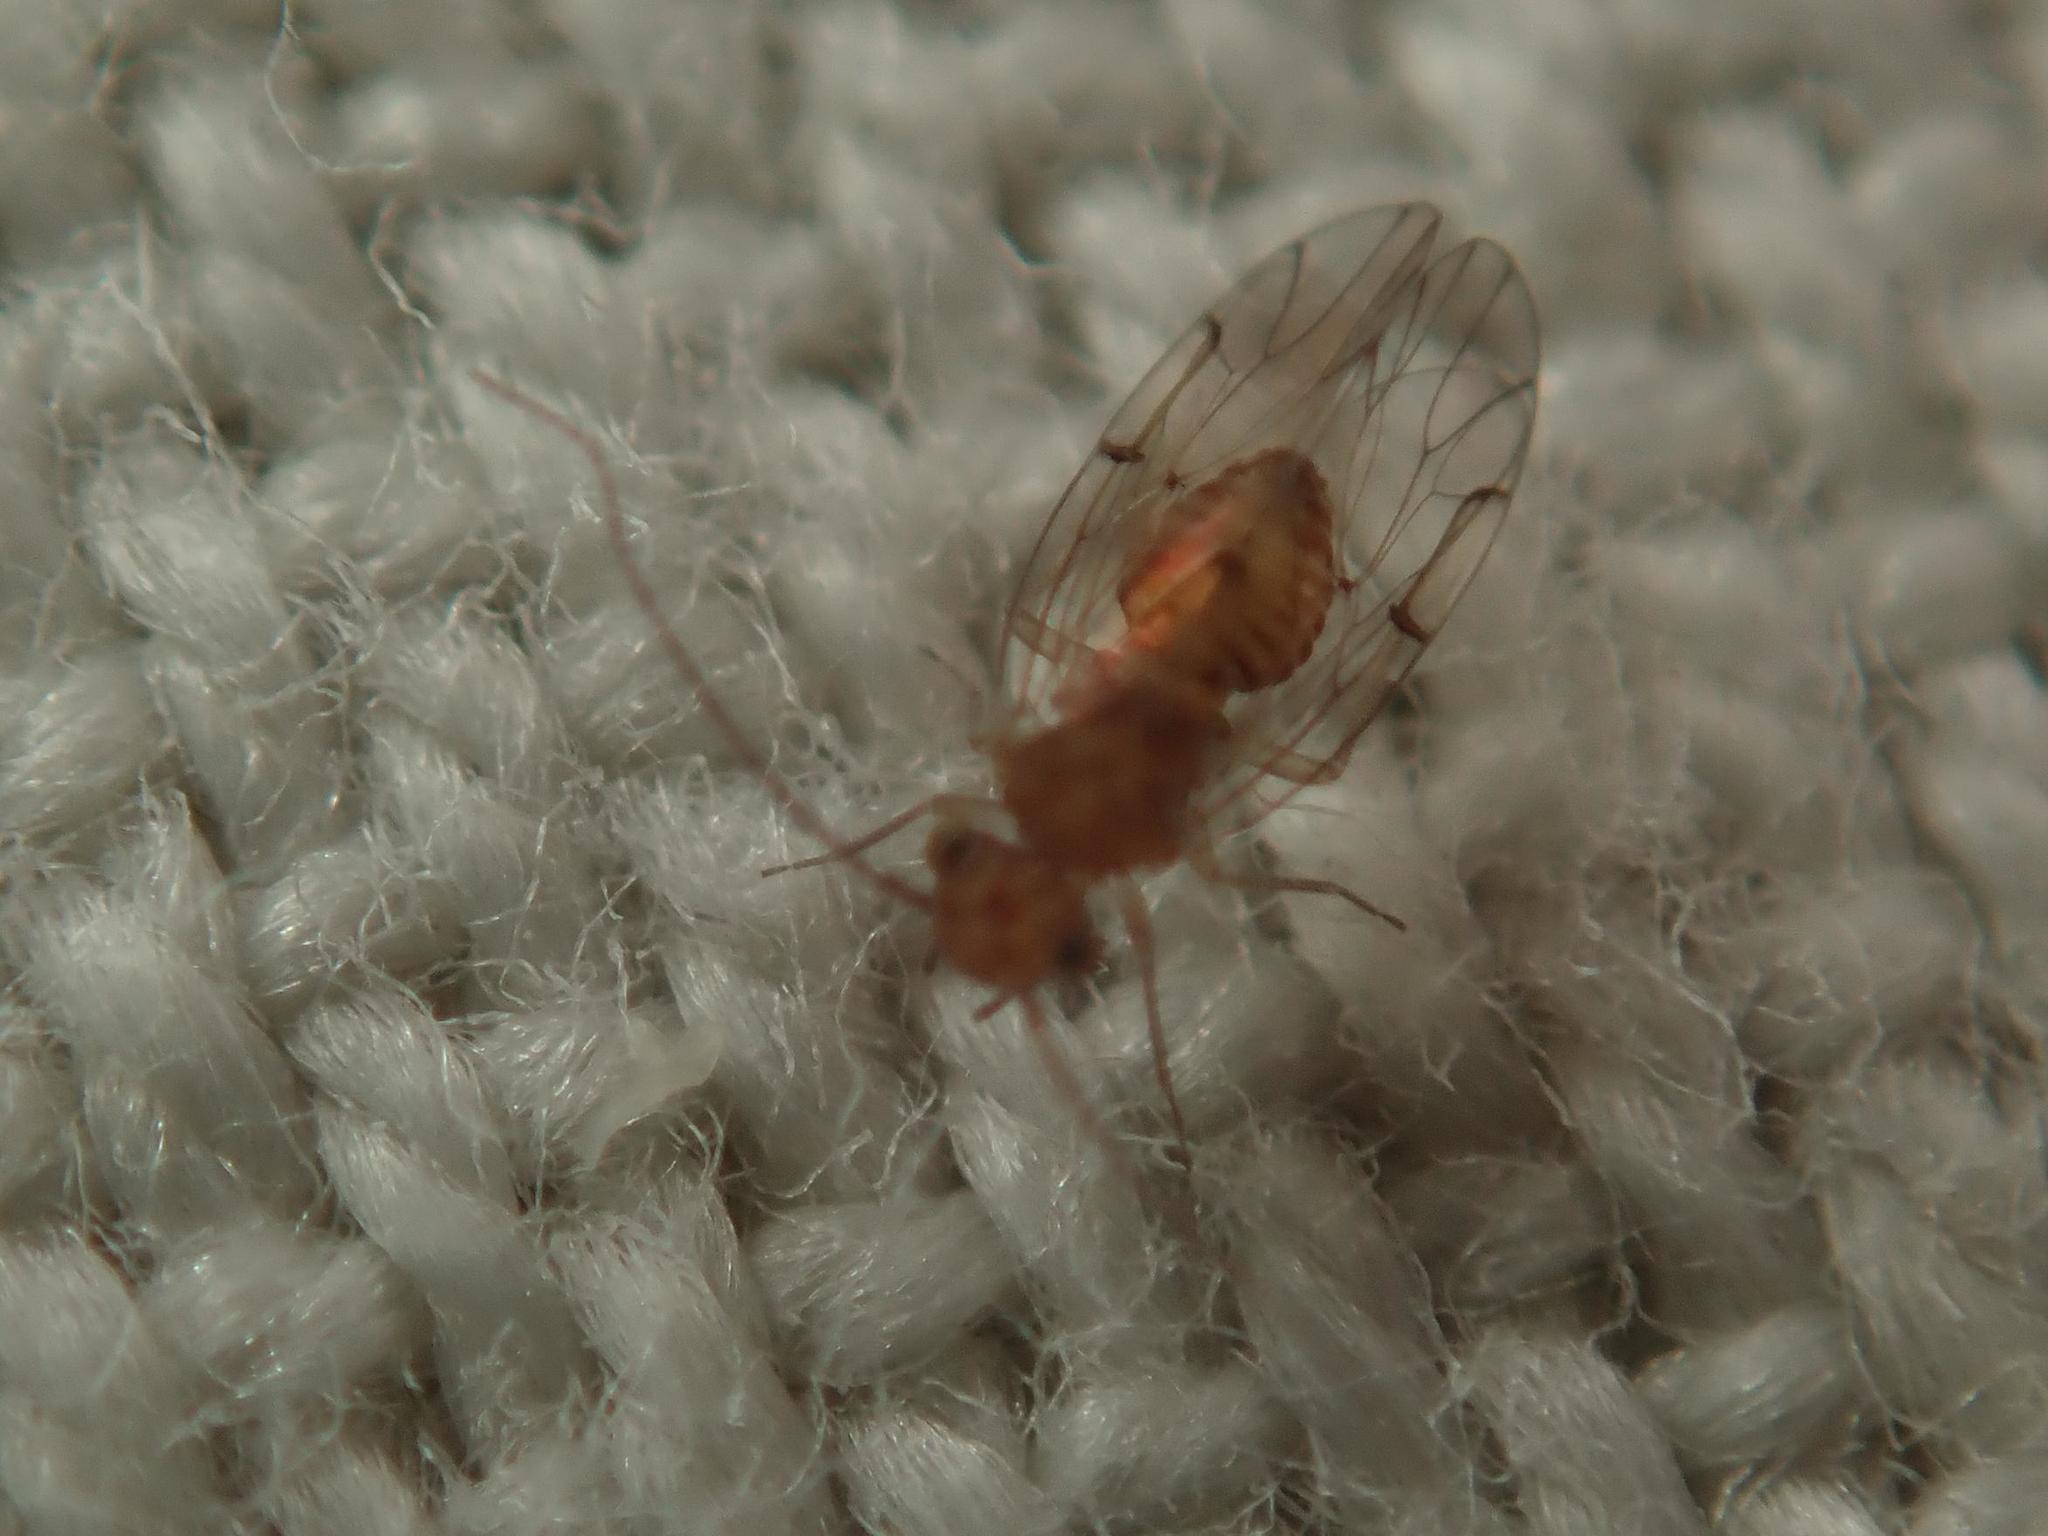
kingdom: Animalia
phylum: Arthropoda
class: Insecta
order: Psocodea
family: Ectopsocidae
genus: Ectopsocus
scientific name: Ectopsocus briggsi
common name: Ectopsocid
